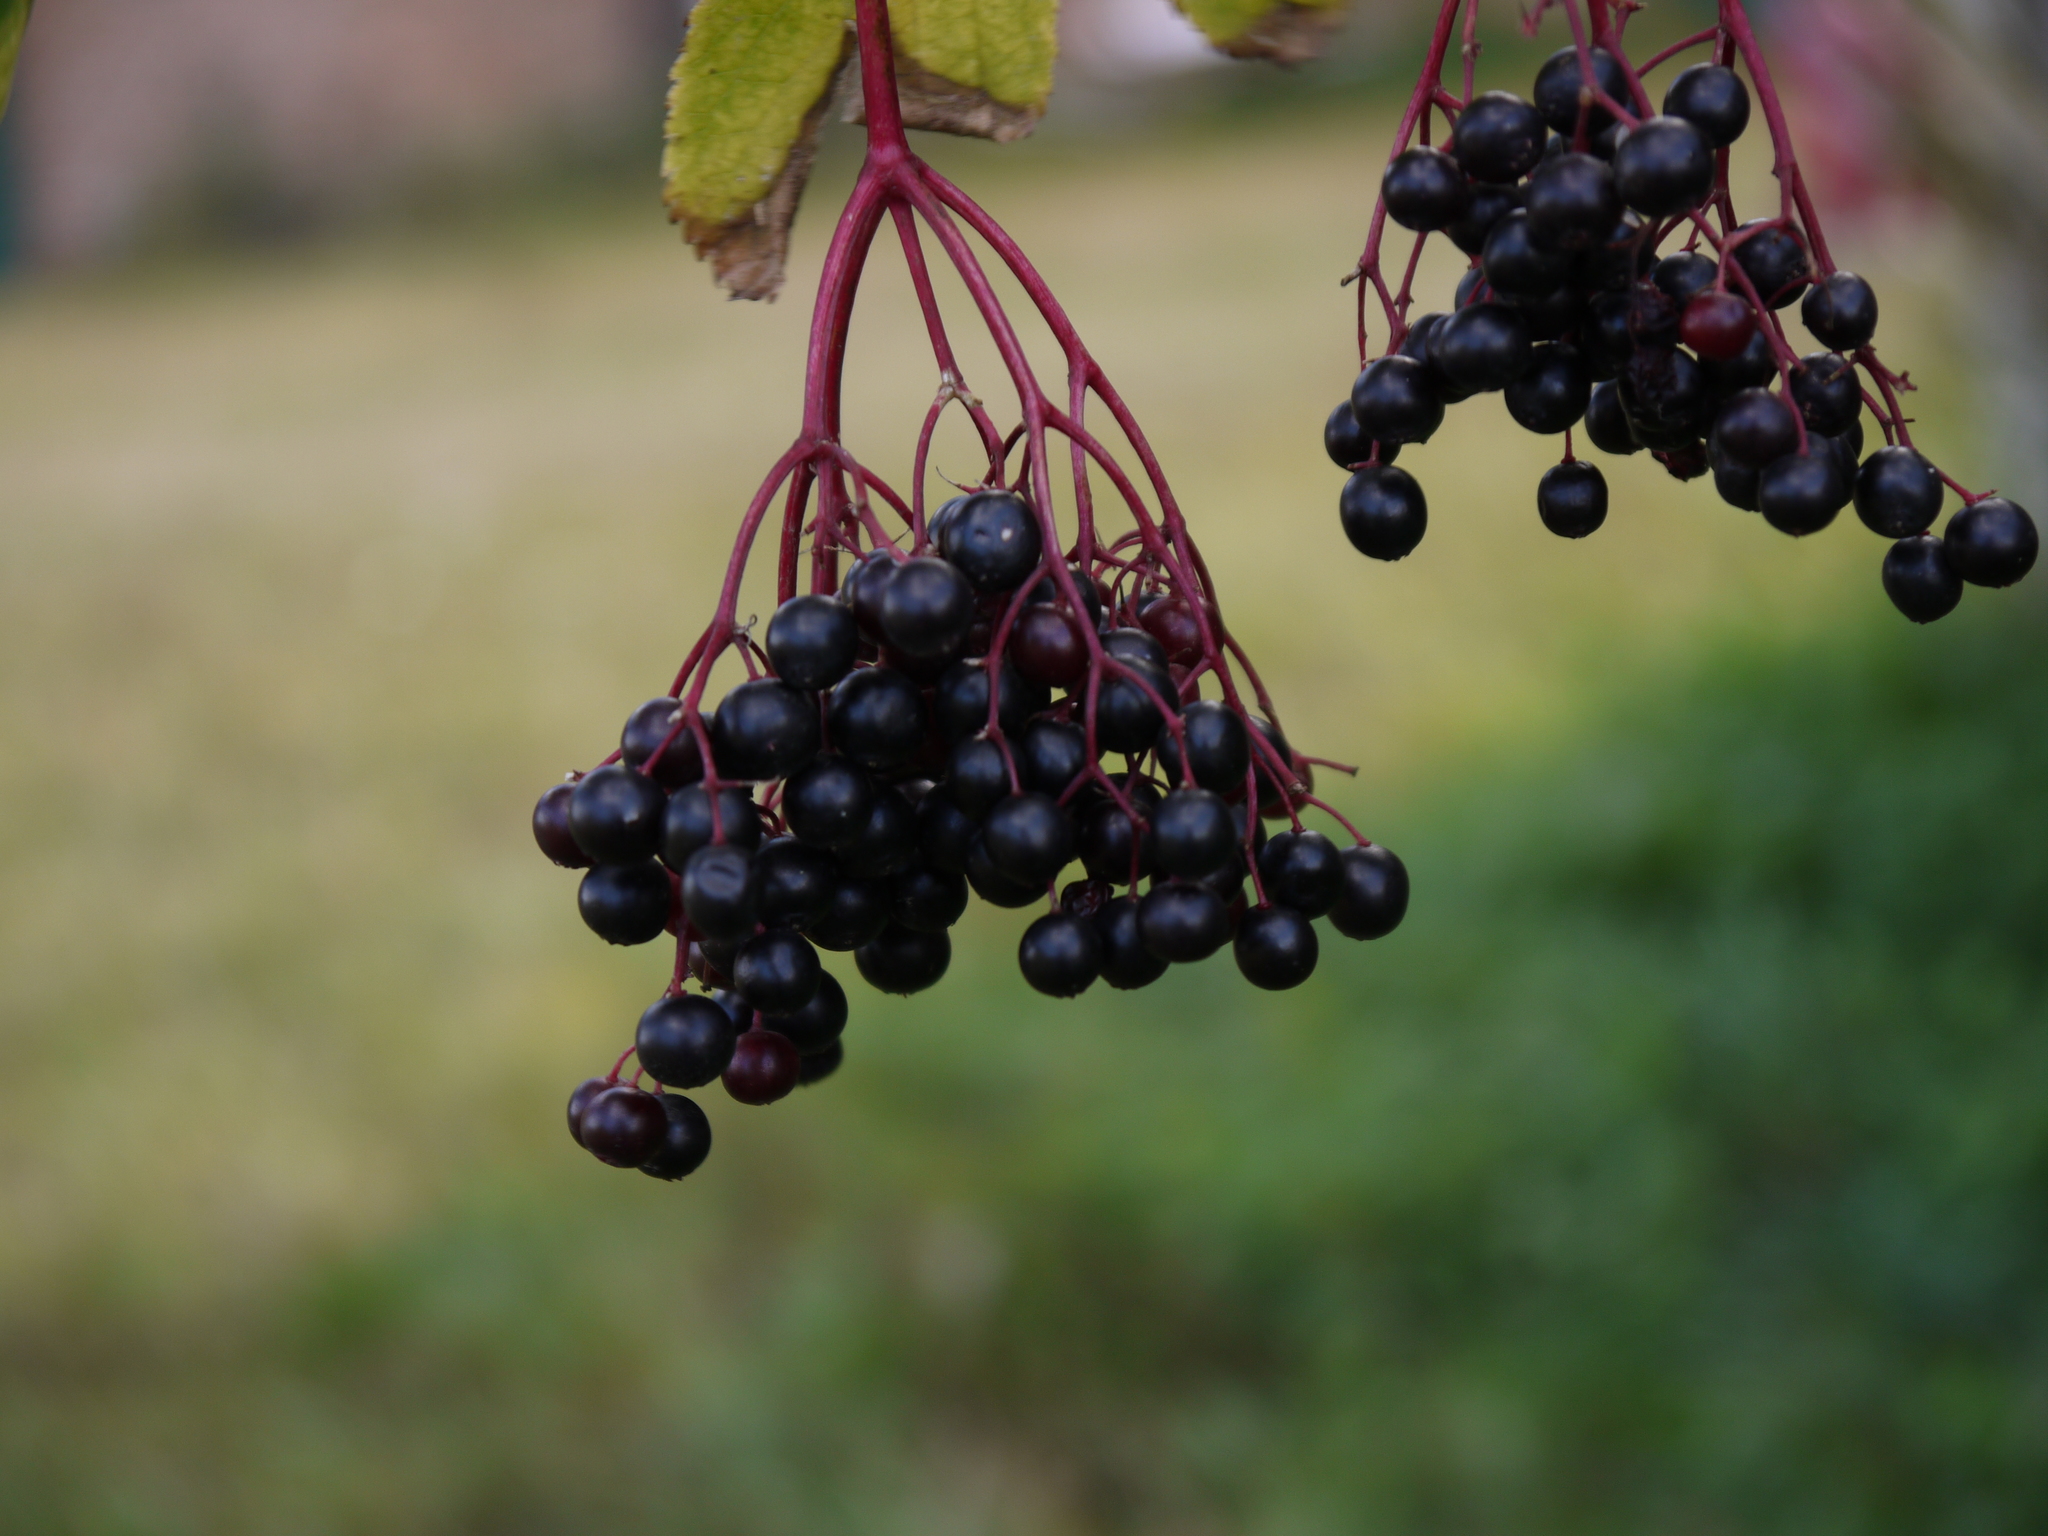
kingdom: Plantae
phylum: Tracheophyta
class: Magnoliopsida
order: Dipsacales
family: Viburnaceae
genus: Sambucus
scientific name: Sambucus nigra
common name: Elder
